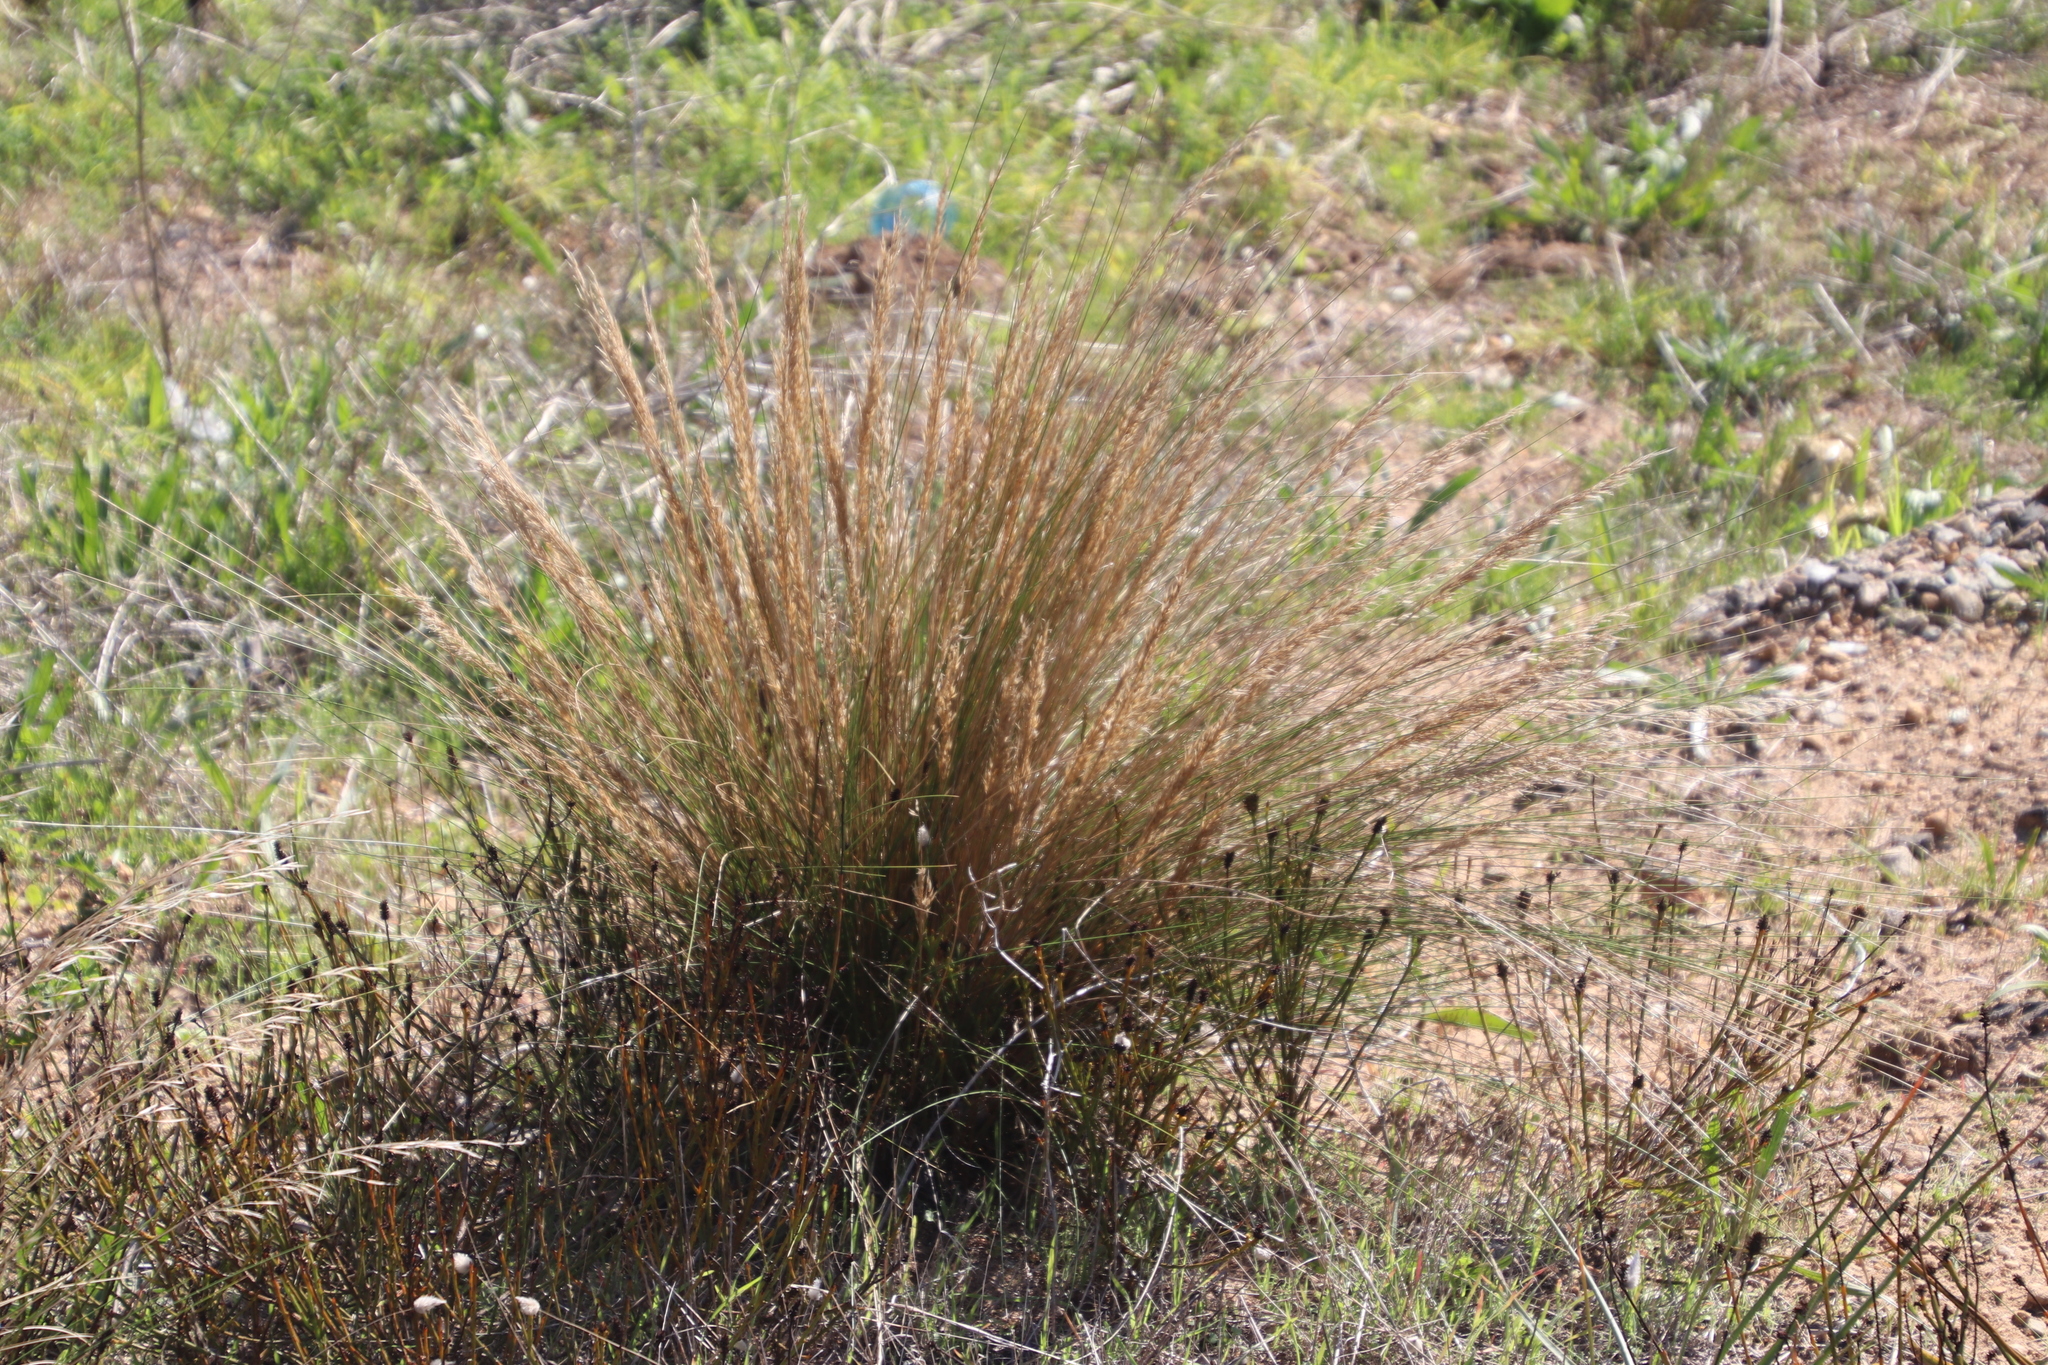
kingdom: Plantae
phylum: Tracheophyta
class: Liliopsida
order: Poales
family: Poaceae
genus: Tenaxia
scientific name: Tenaxia stricta
